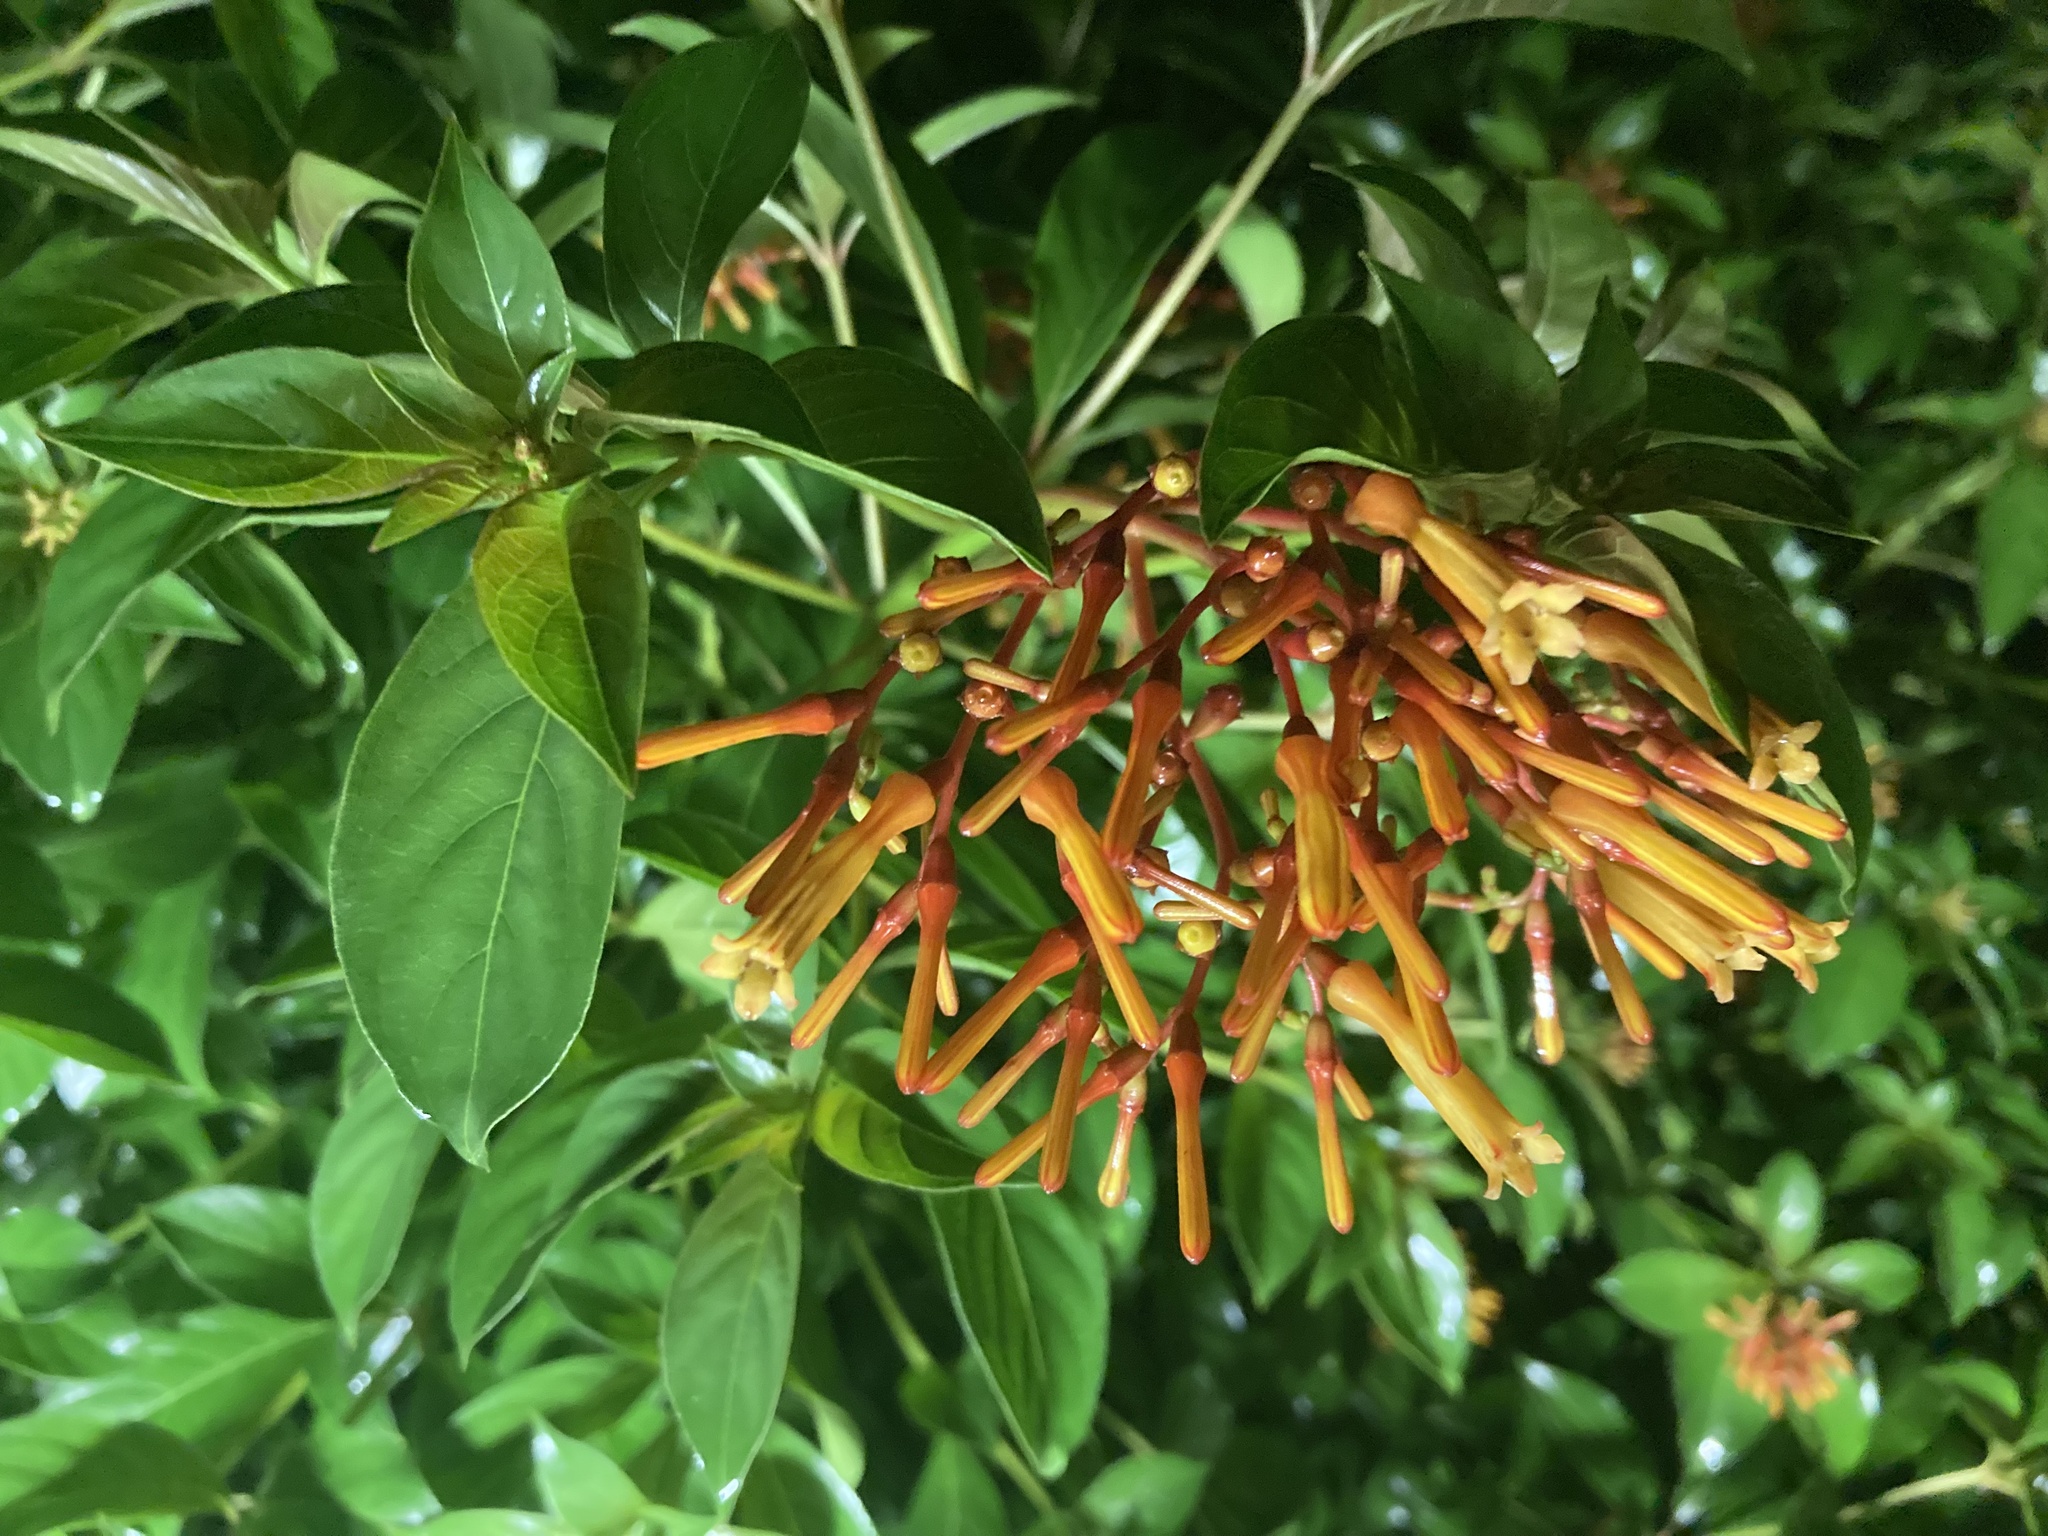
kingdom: Plantae
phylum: Tracheophyta
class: Magnoliopsida
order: Gentianales
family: Rubiaceae
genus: Hamelia
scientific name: Hamelia patens
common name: Redhead
